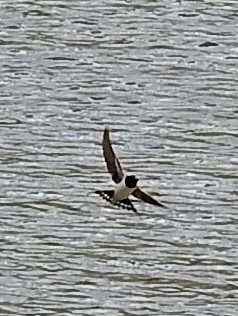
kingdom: Animalia
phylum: Chordata
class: Aves
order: Passeriformes
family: Hirundinidae
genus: Hirundo
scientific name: Hirundo rustica
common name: Barn swallow
